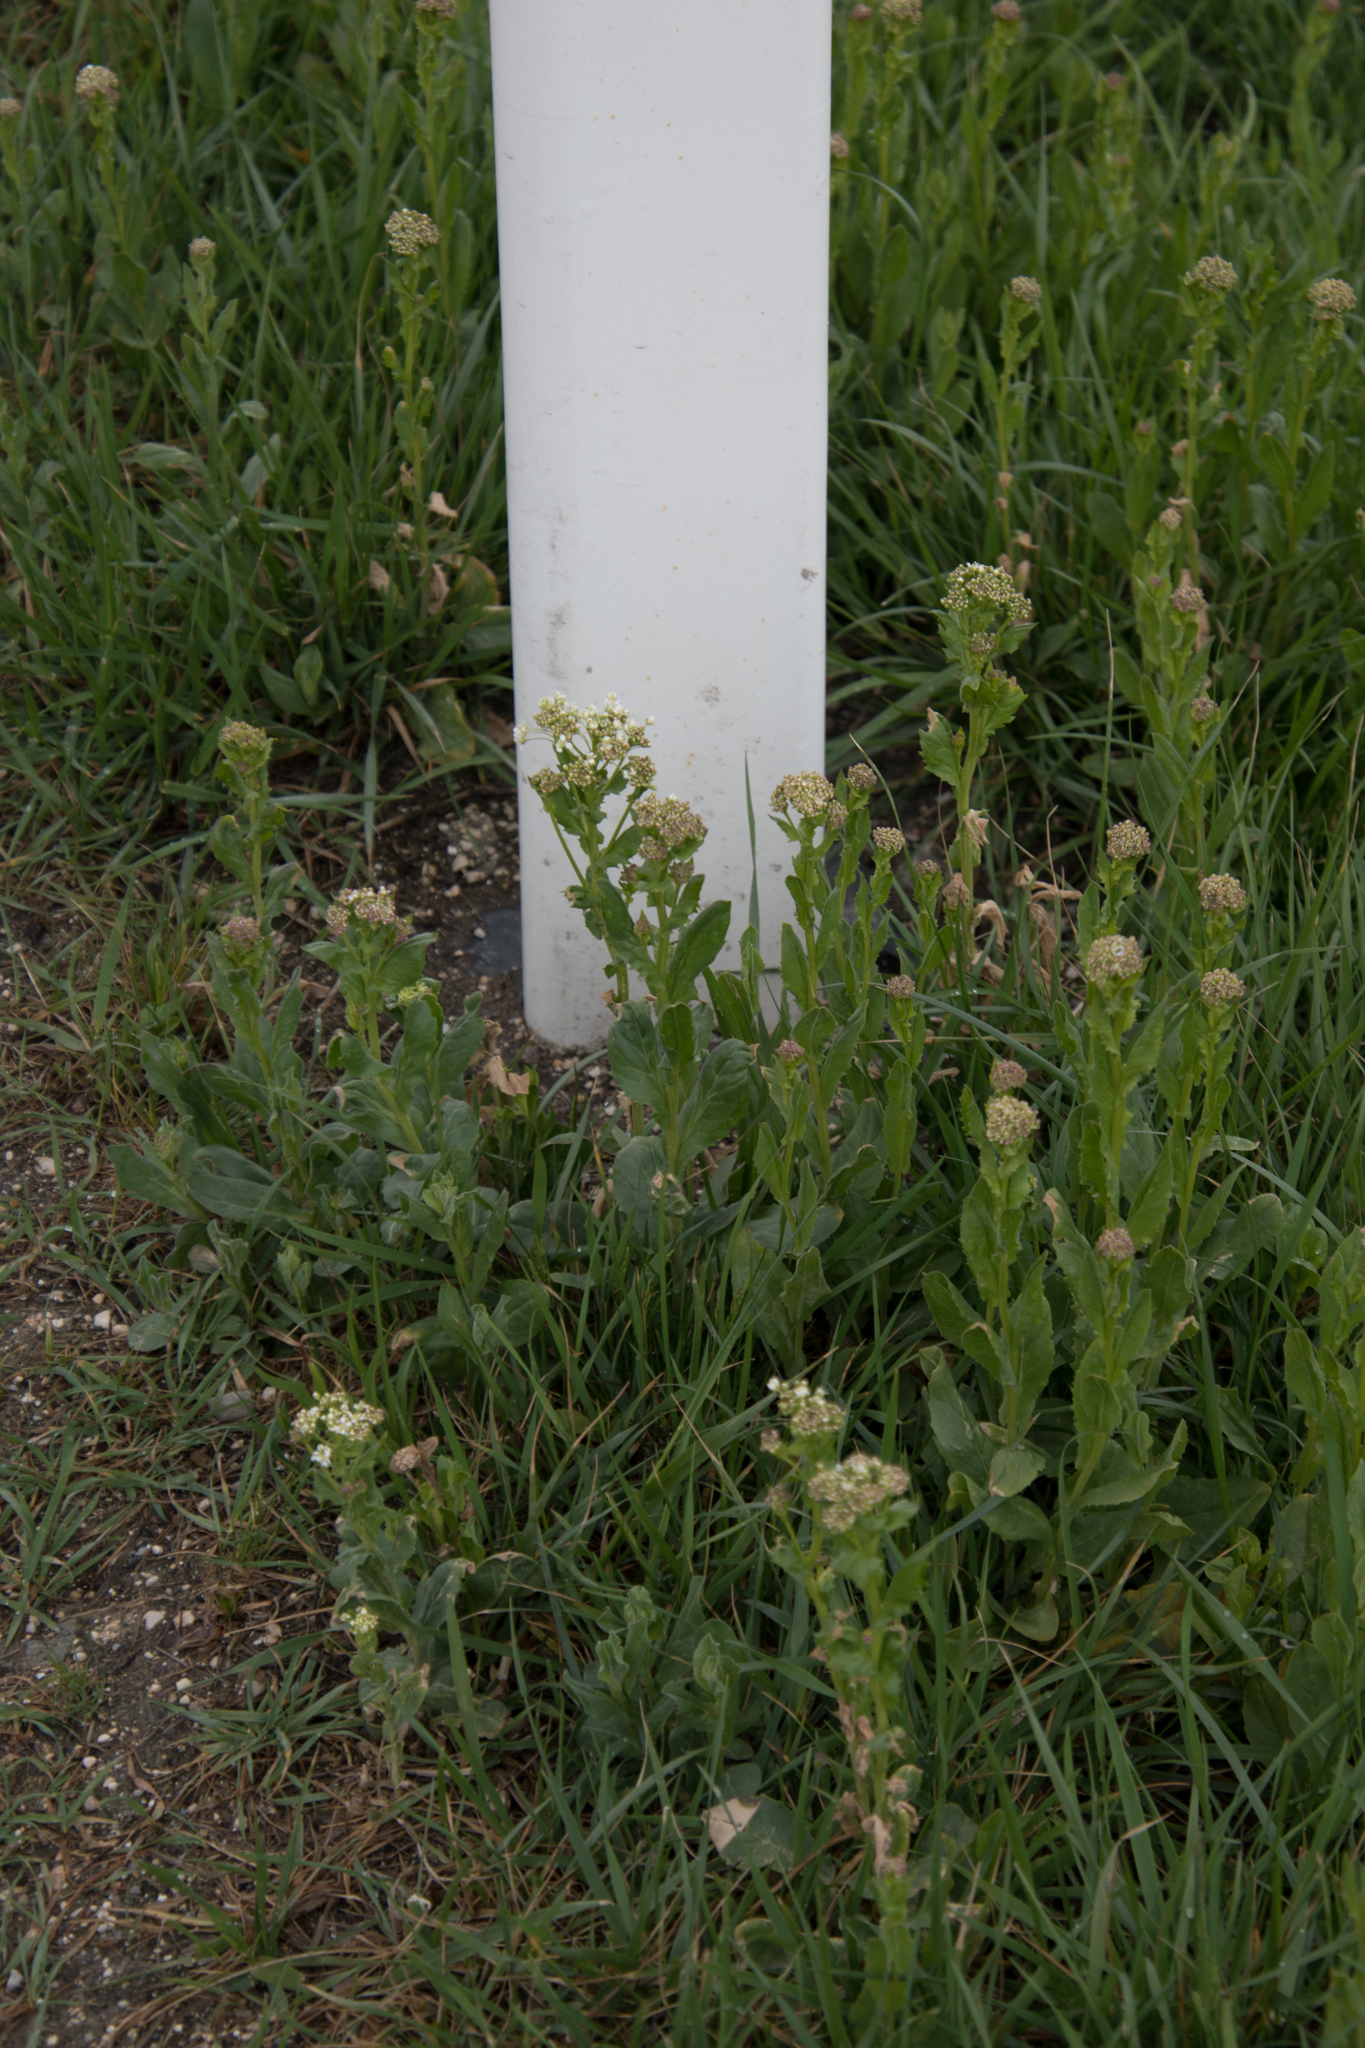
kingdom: Plantae
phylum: Tracheophyta
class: Magnoliopsida
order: Brassicales
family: Brassicaceae
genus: Lepidium
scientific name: Lepidium draba
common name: Hoary cress
